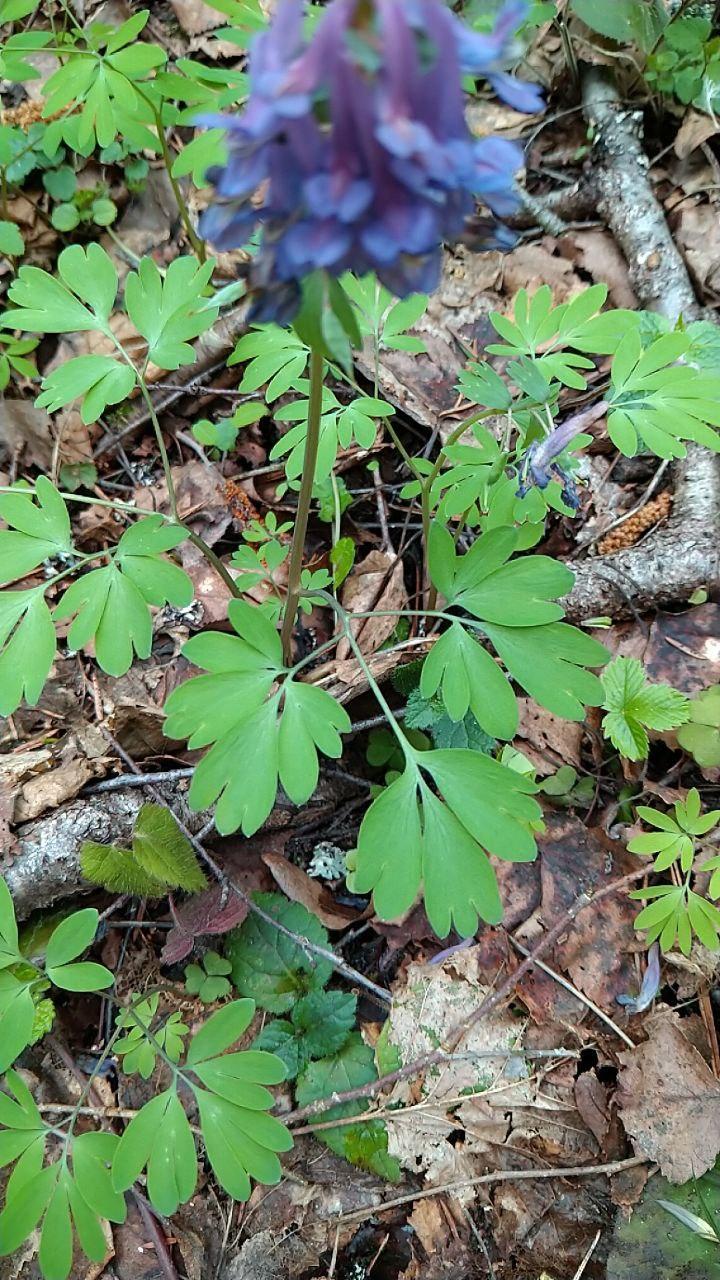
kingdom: Plantae
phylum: Tracheophyta
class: Magnoliopsida
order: Ranunculales
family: Papaveraceae
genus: Corydalis
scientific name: Corydalis solida
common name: Bird-in-a-bush
